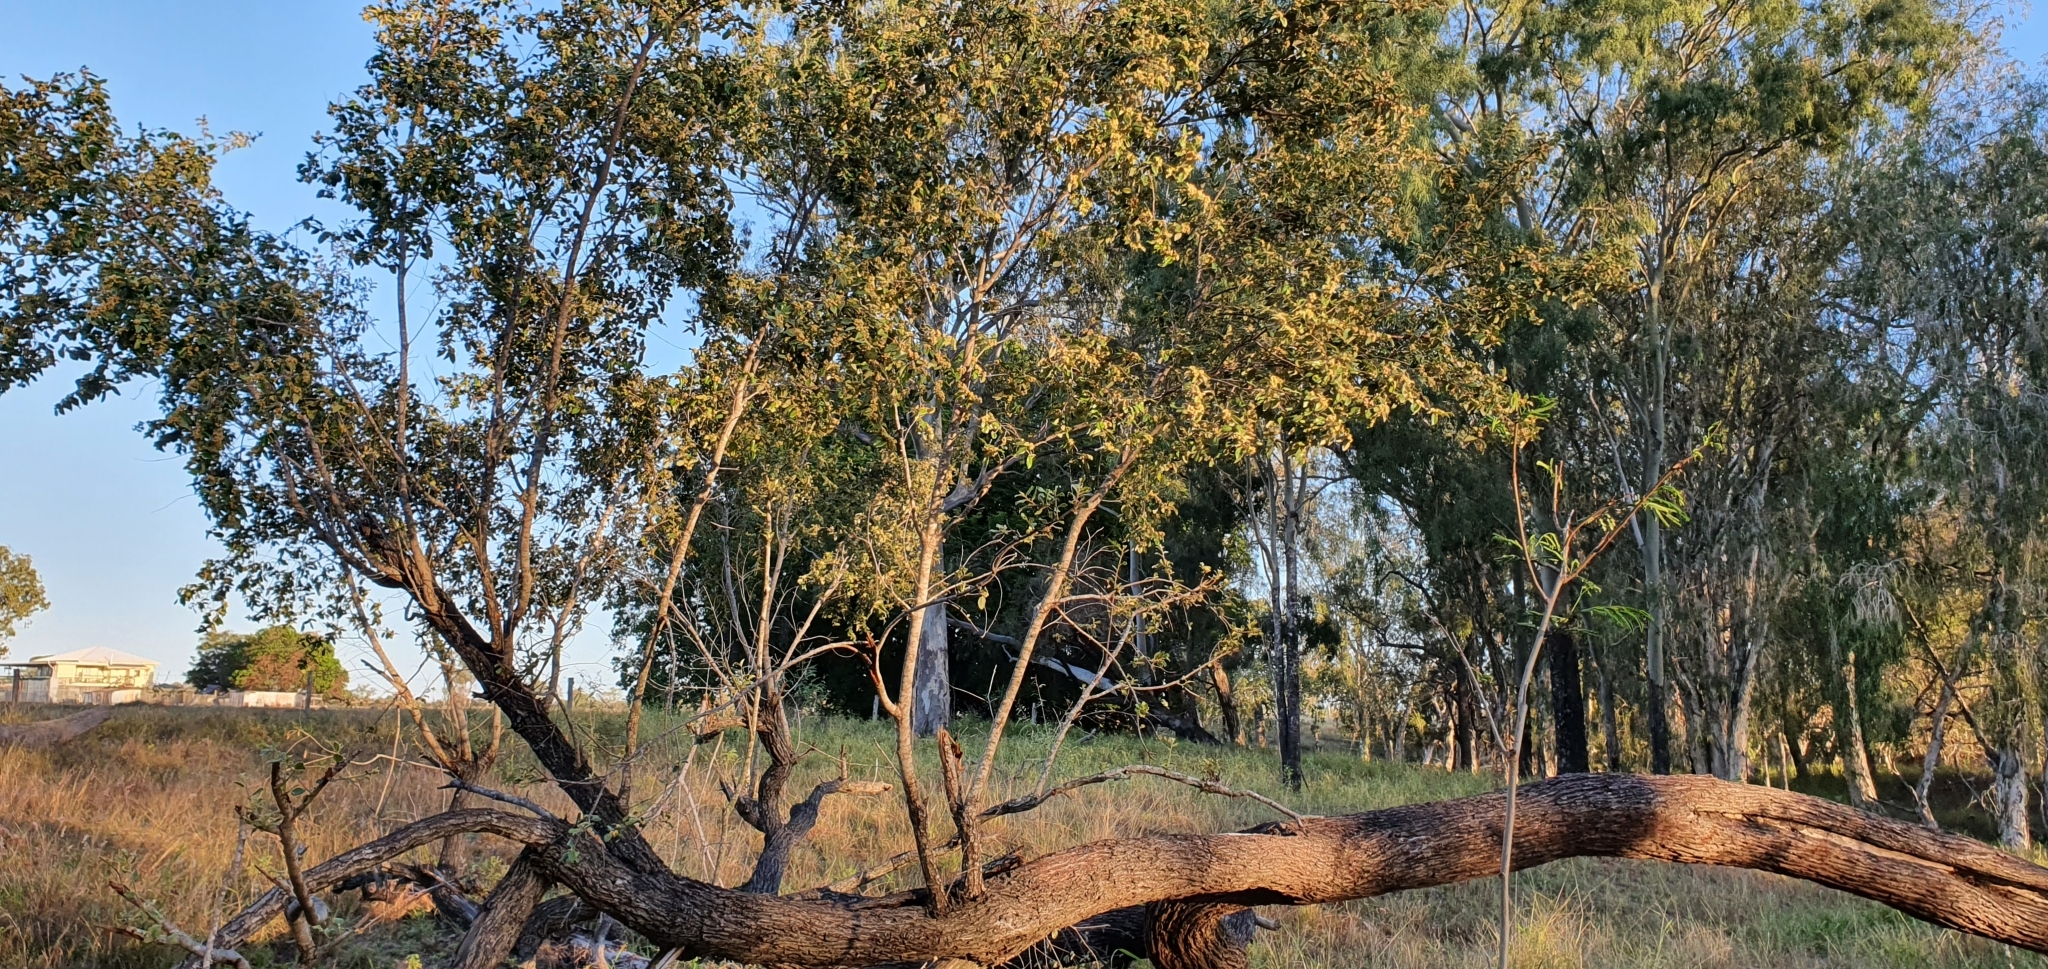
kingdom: Plantae
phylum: Tracheophyta
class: Magnoliopsida
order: Malpighiales
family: Picrodendraceae
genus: Petalostigma
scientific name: Petalostigma pubescens
